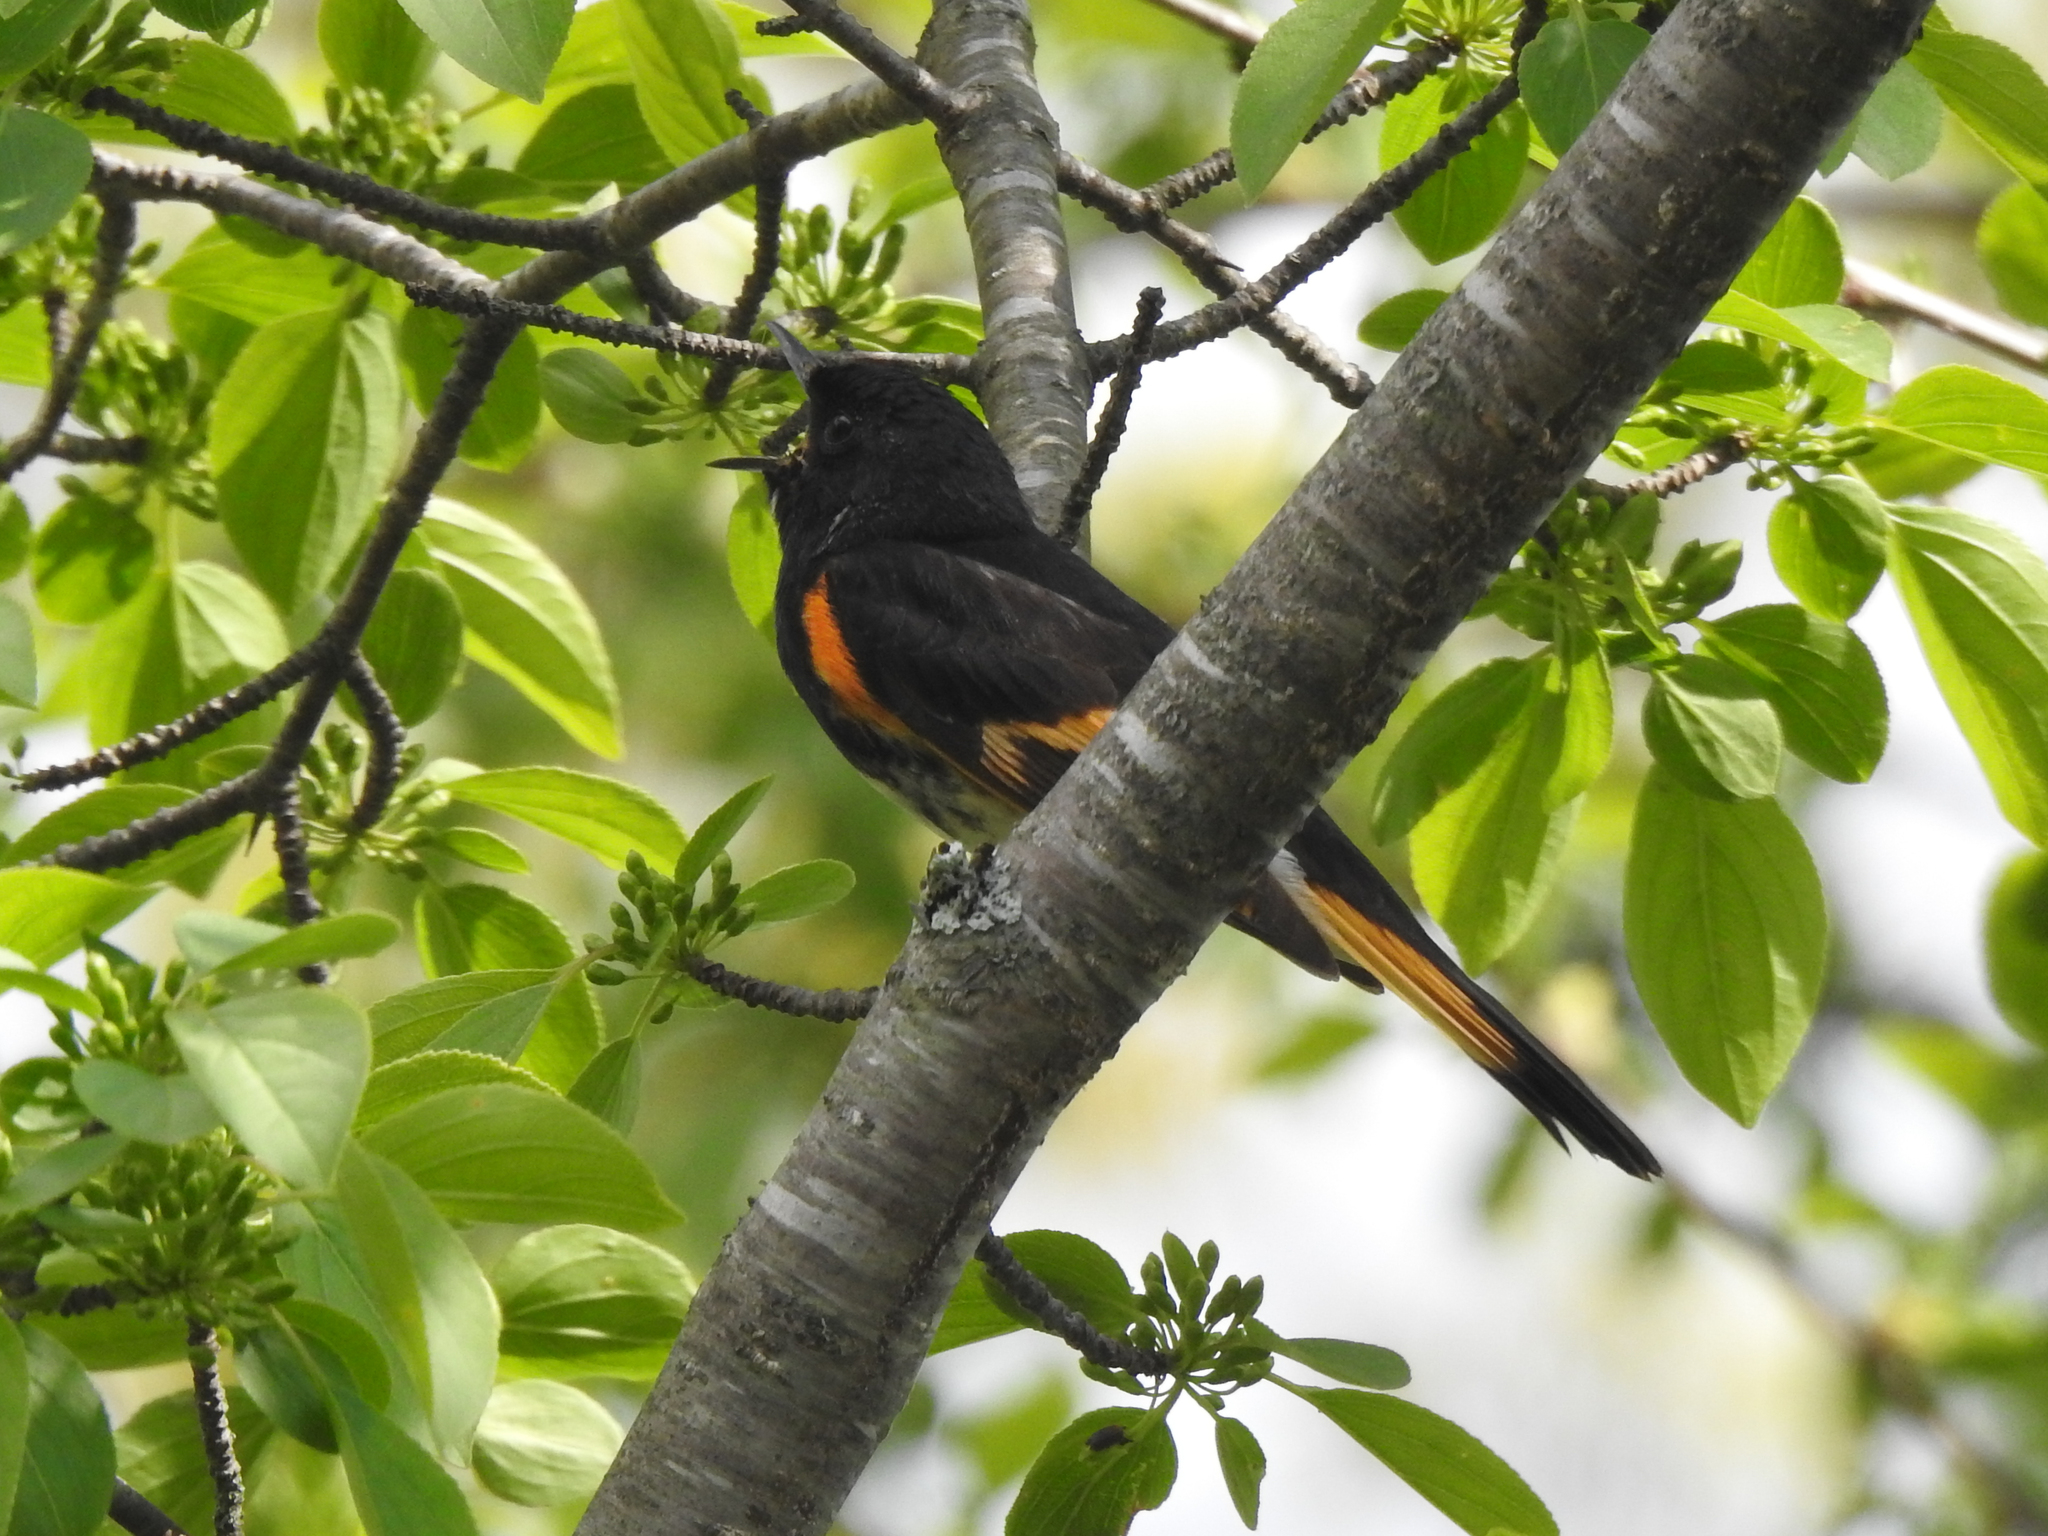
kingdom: Animalia
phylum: Chordata
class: Aves
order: Passeriformes
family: Parulidae
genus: Setophaga
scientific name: Setophaga ruticilla
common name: American redstart
